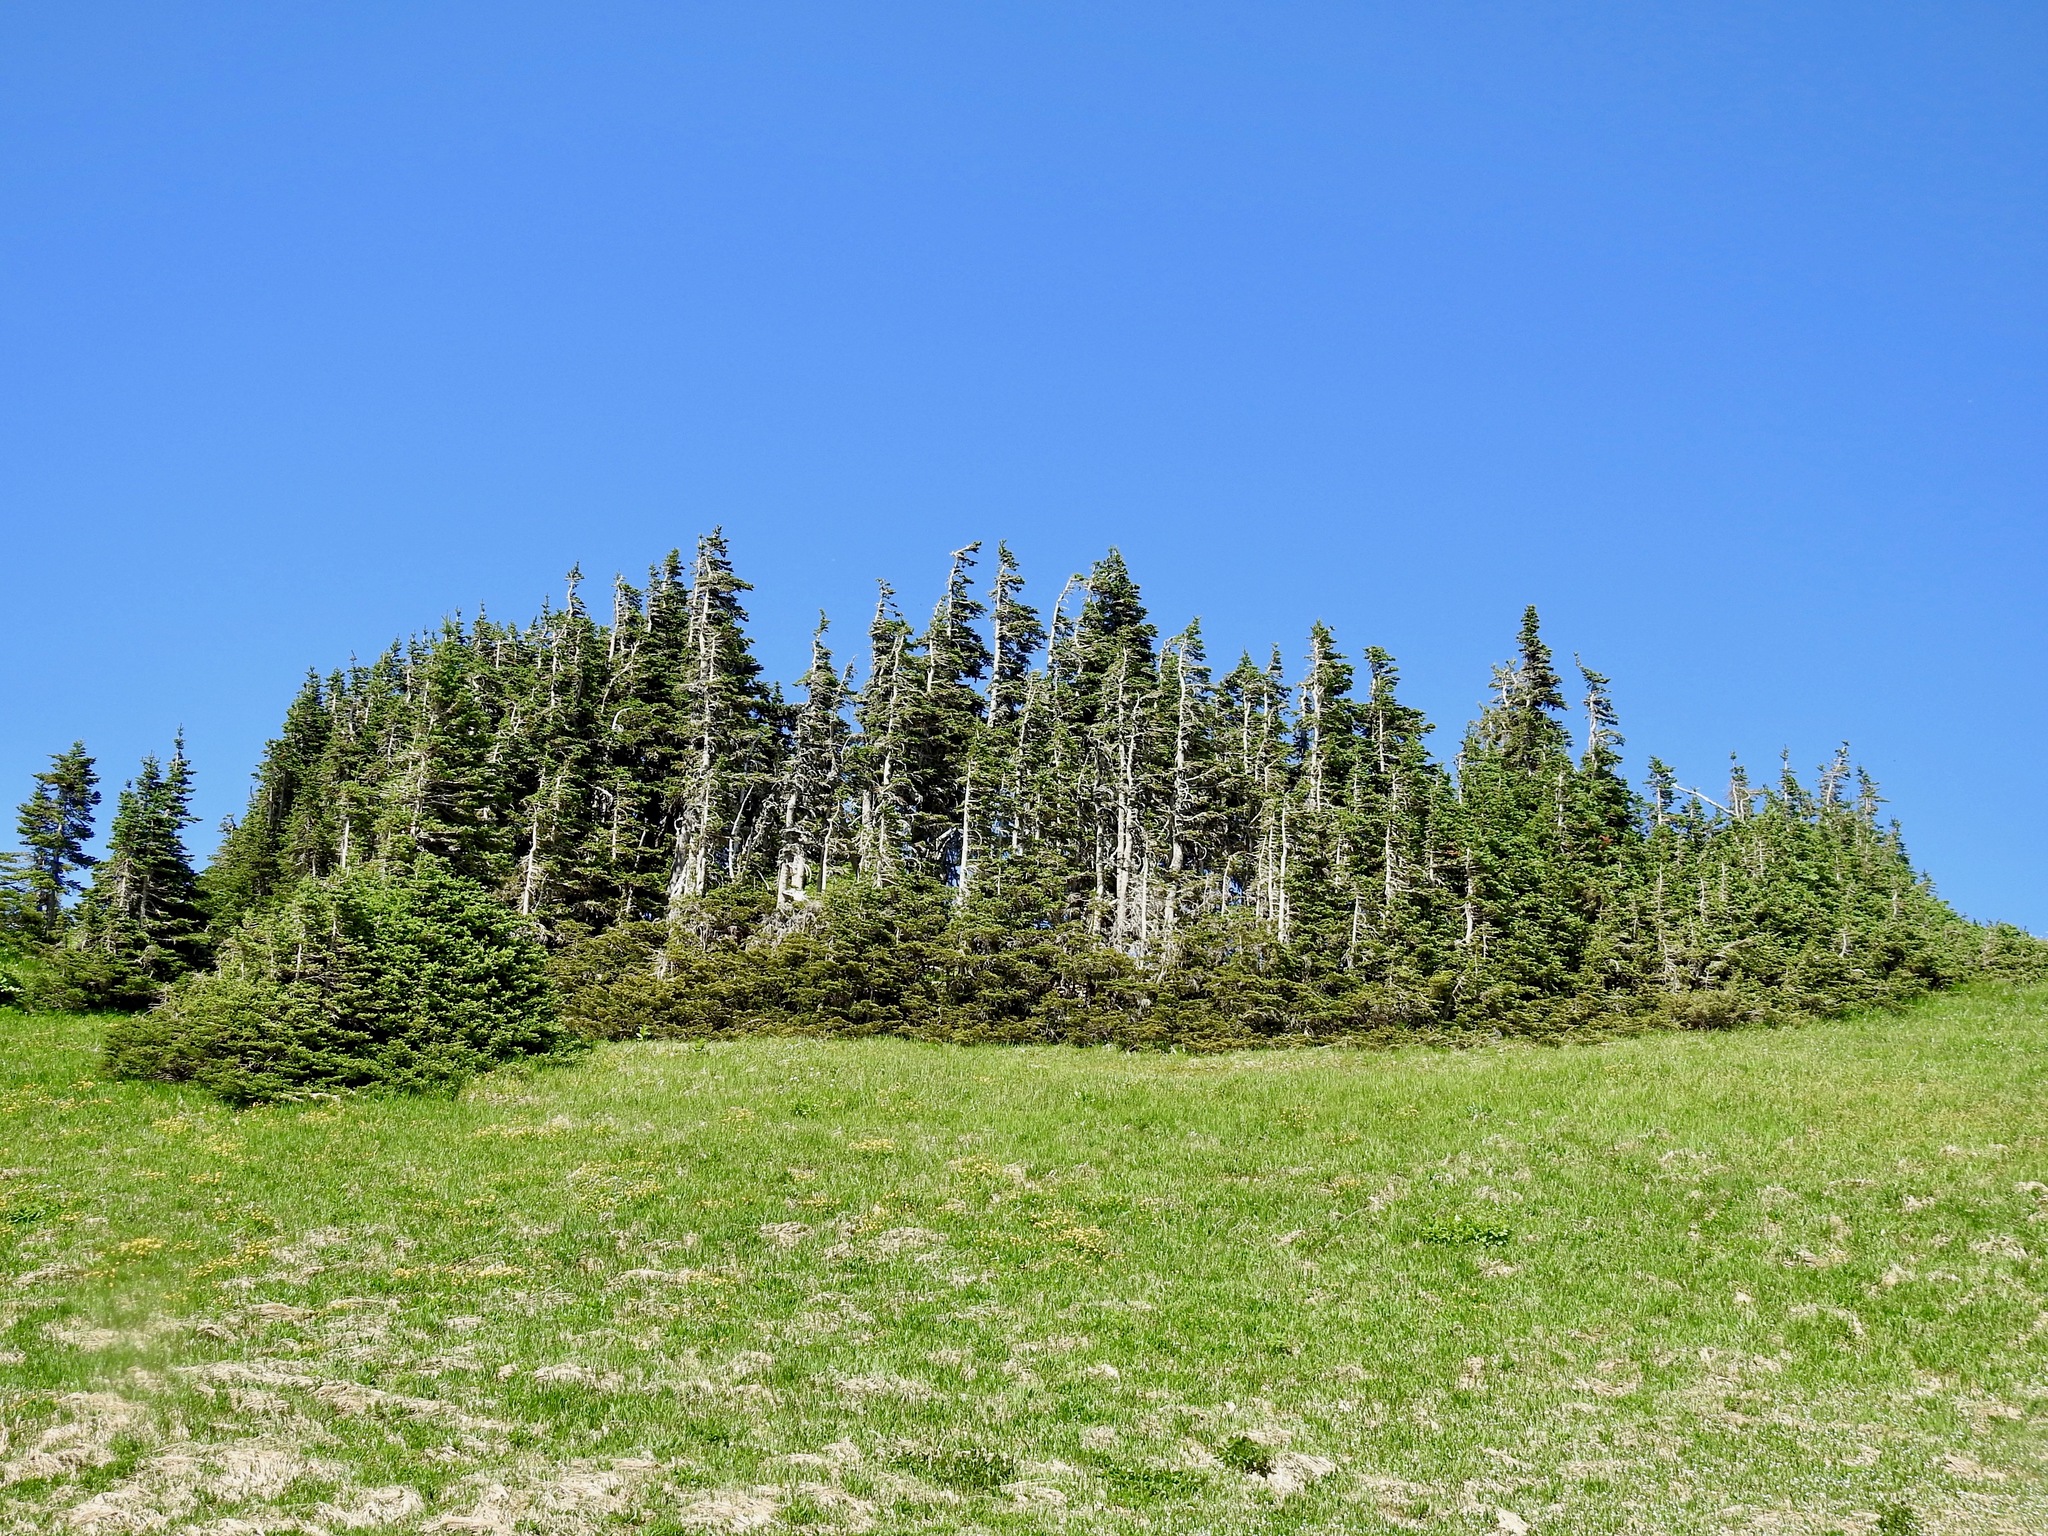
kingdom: Plantae
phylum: Tracheophyta
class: Pinopsida
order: Pinales
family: Pinaceae
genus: Abies
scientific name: Abies lasiocarpa
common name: Subalpine fir
